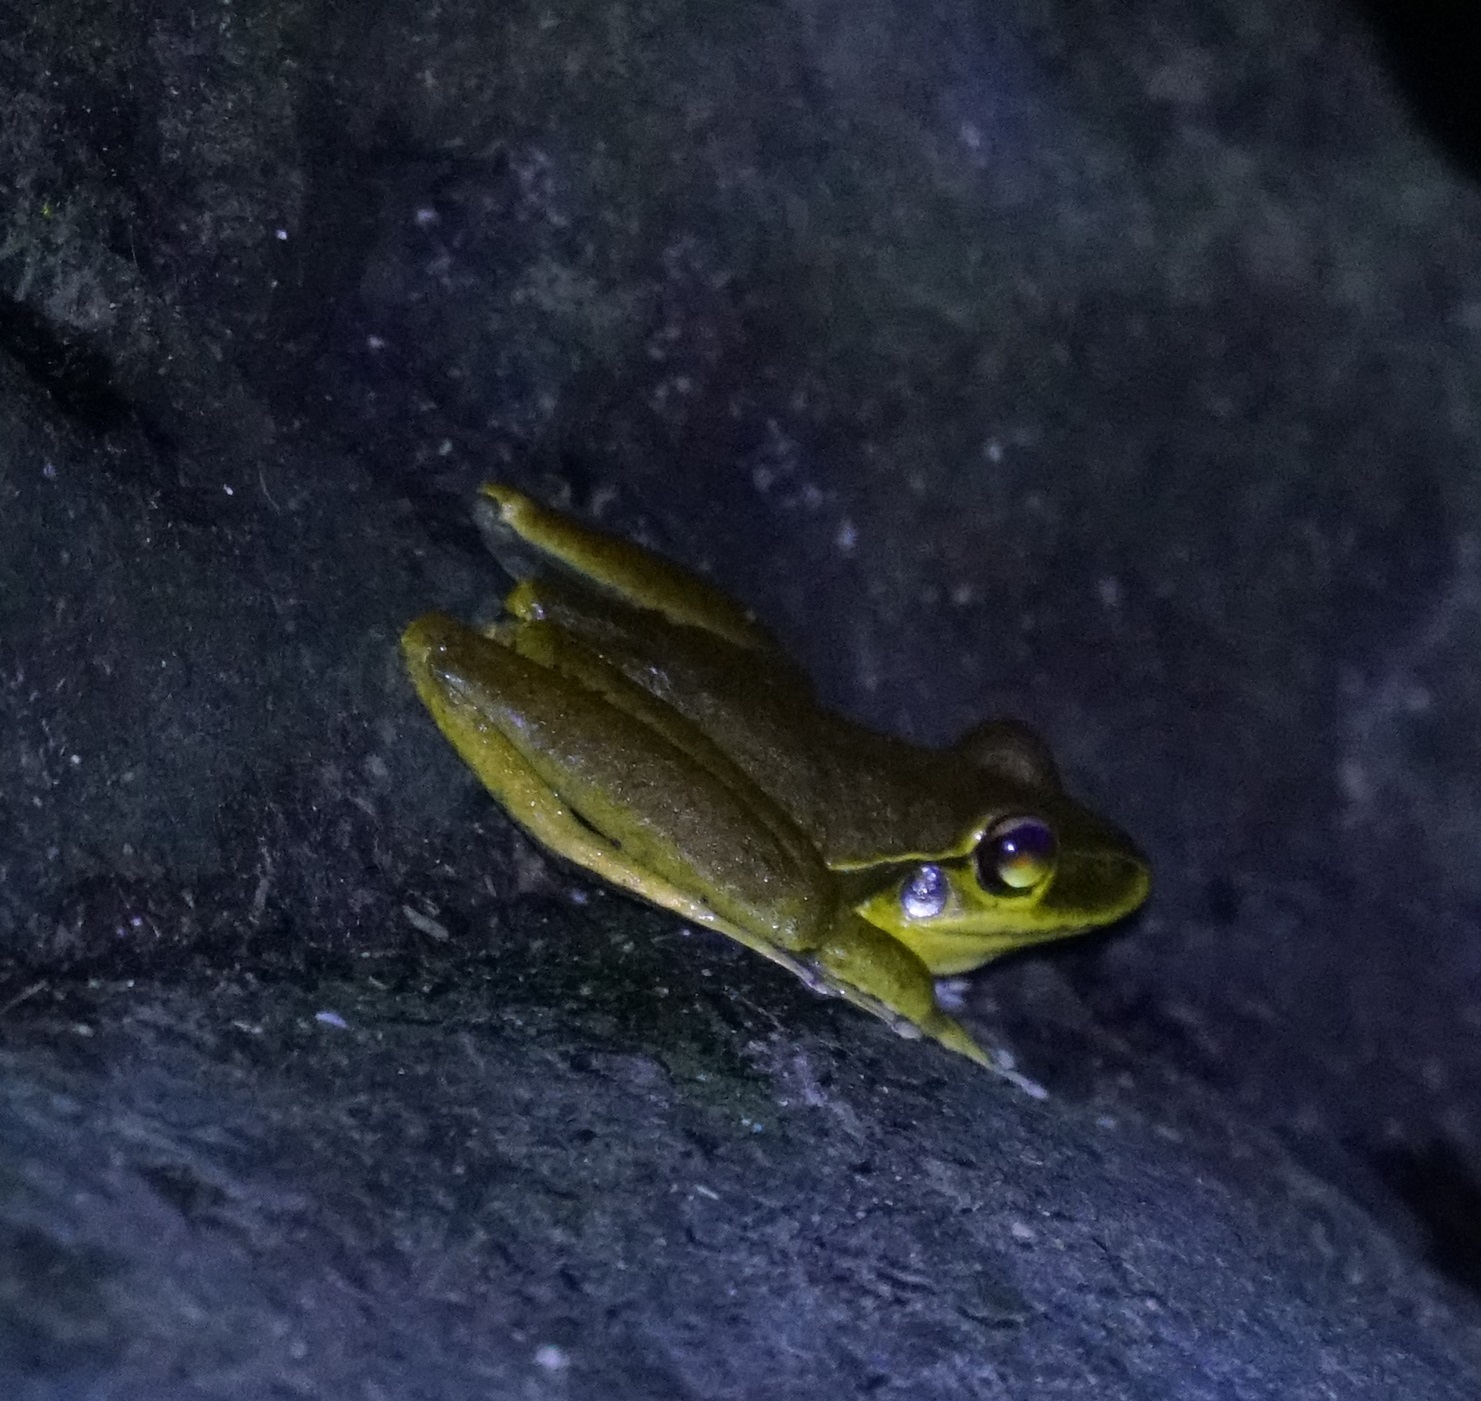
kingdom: Animalia
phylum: Chordata
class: Amphibia
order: Anura
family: Hylidae
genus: Ranoidea
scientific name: Ranoidea
